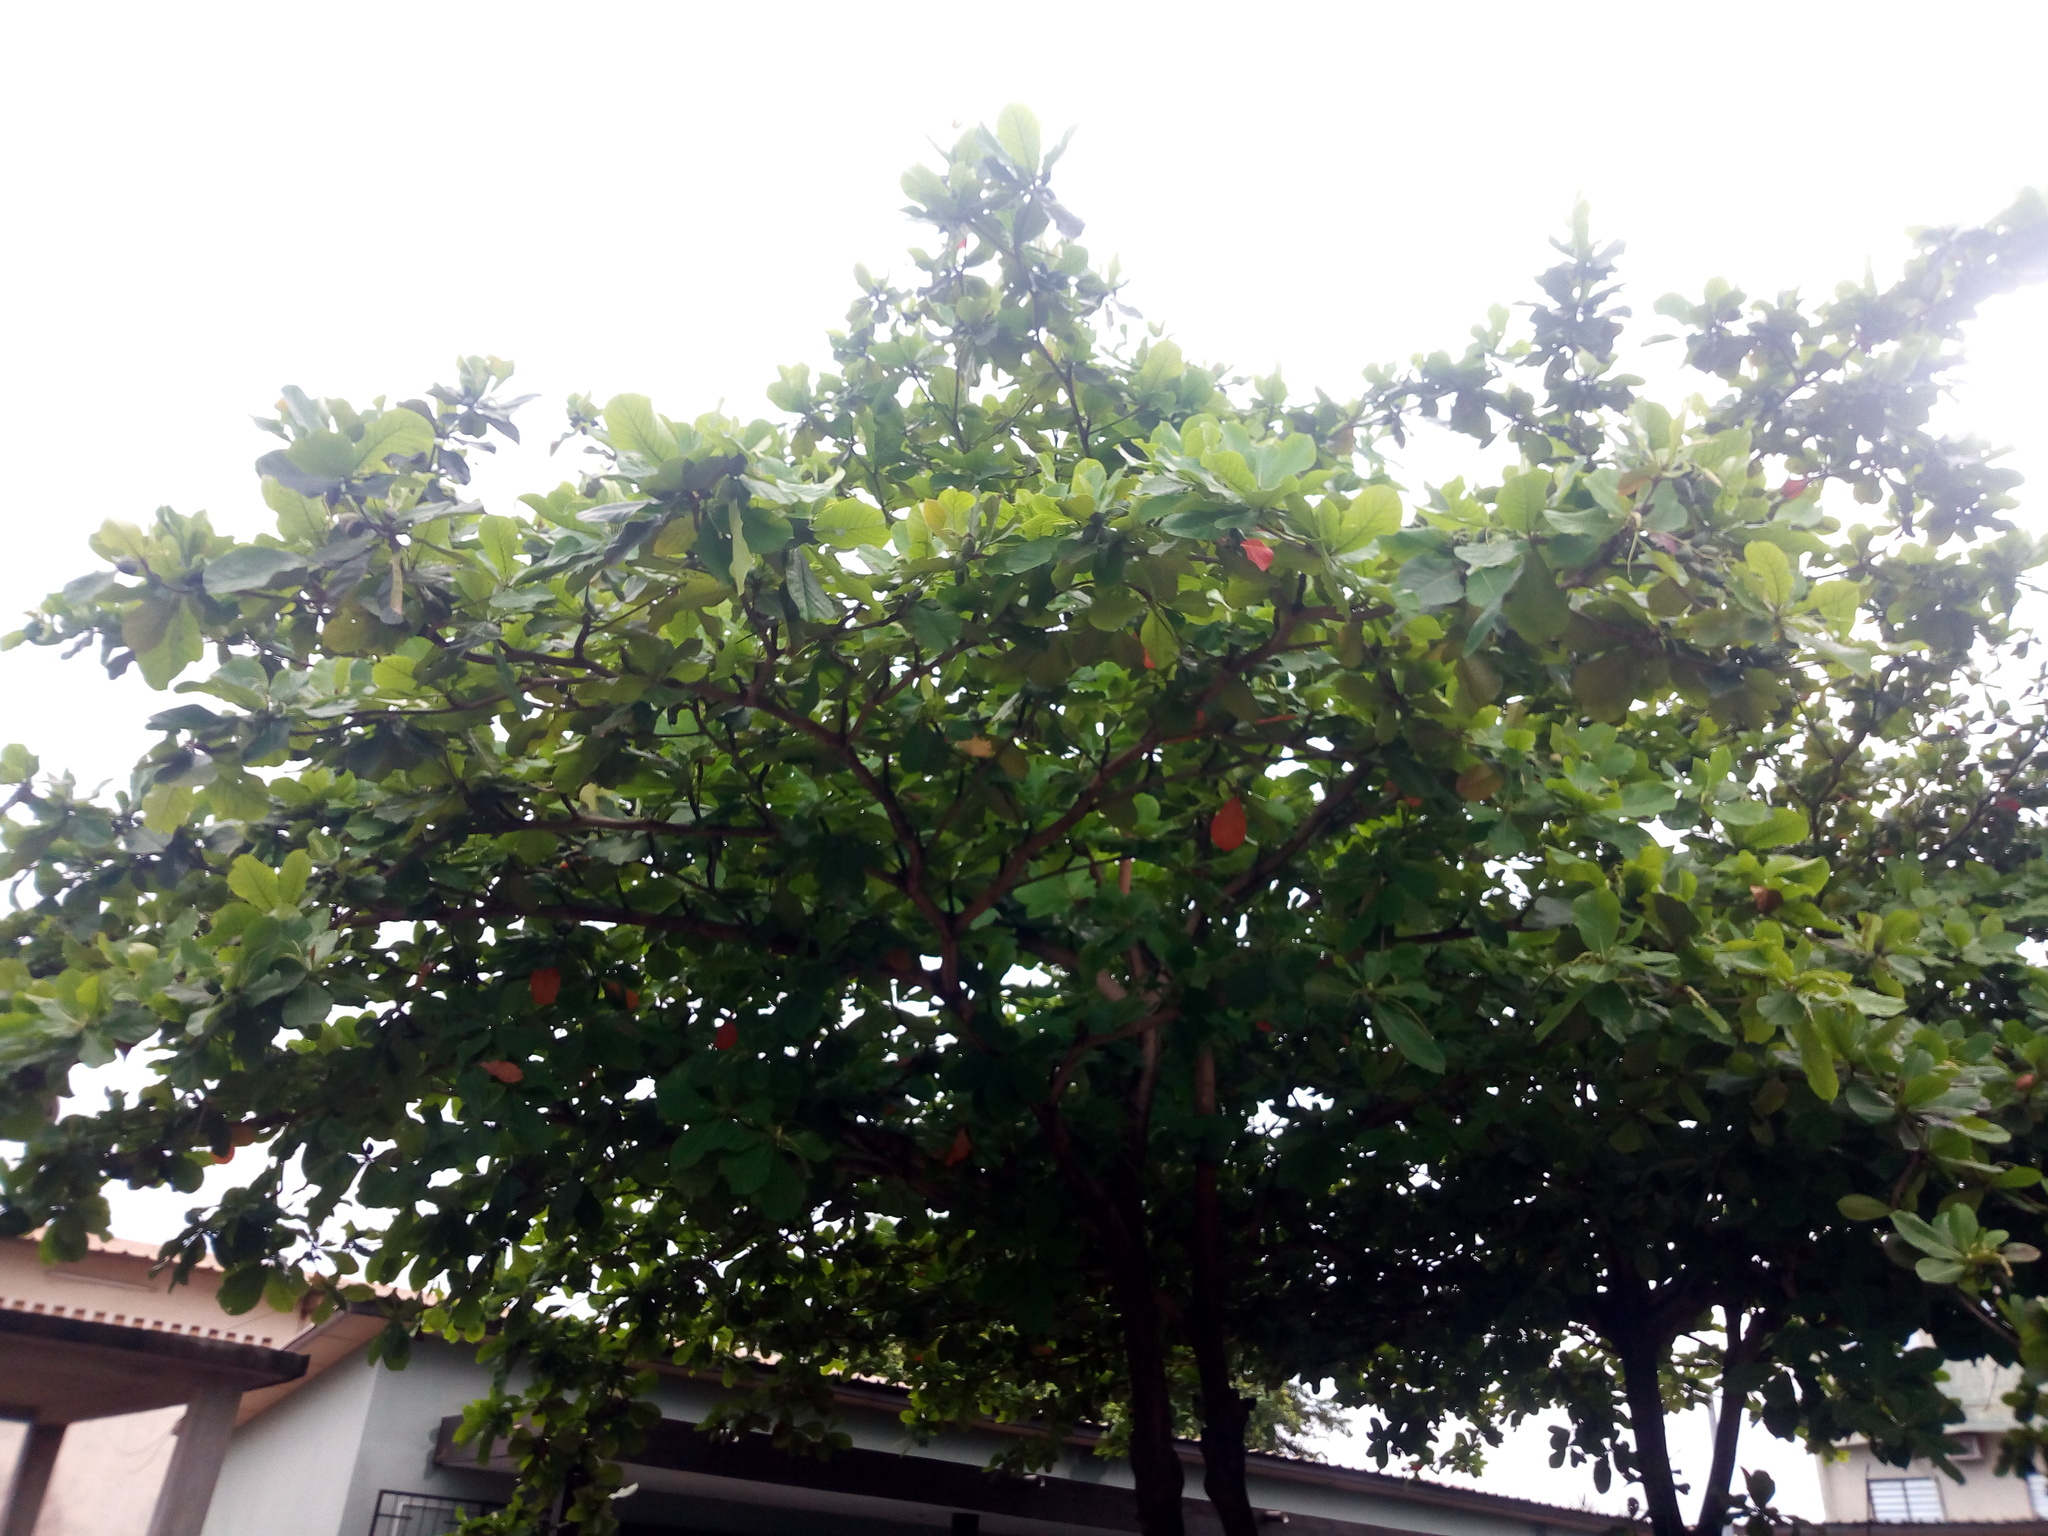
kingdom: Plantae
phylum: Tracheophyta
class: Magnoliopsida
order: Myrtales
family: Combretaceae
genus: Terminalia
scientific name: Terminalia catappa
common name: Tropical almond
